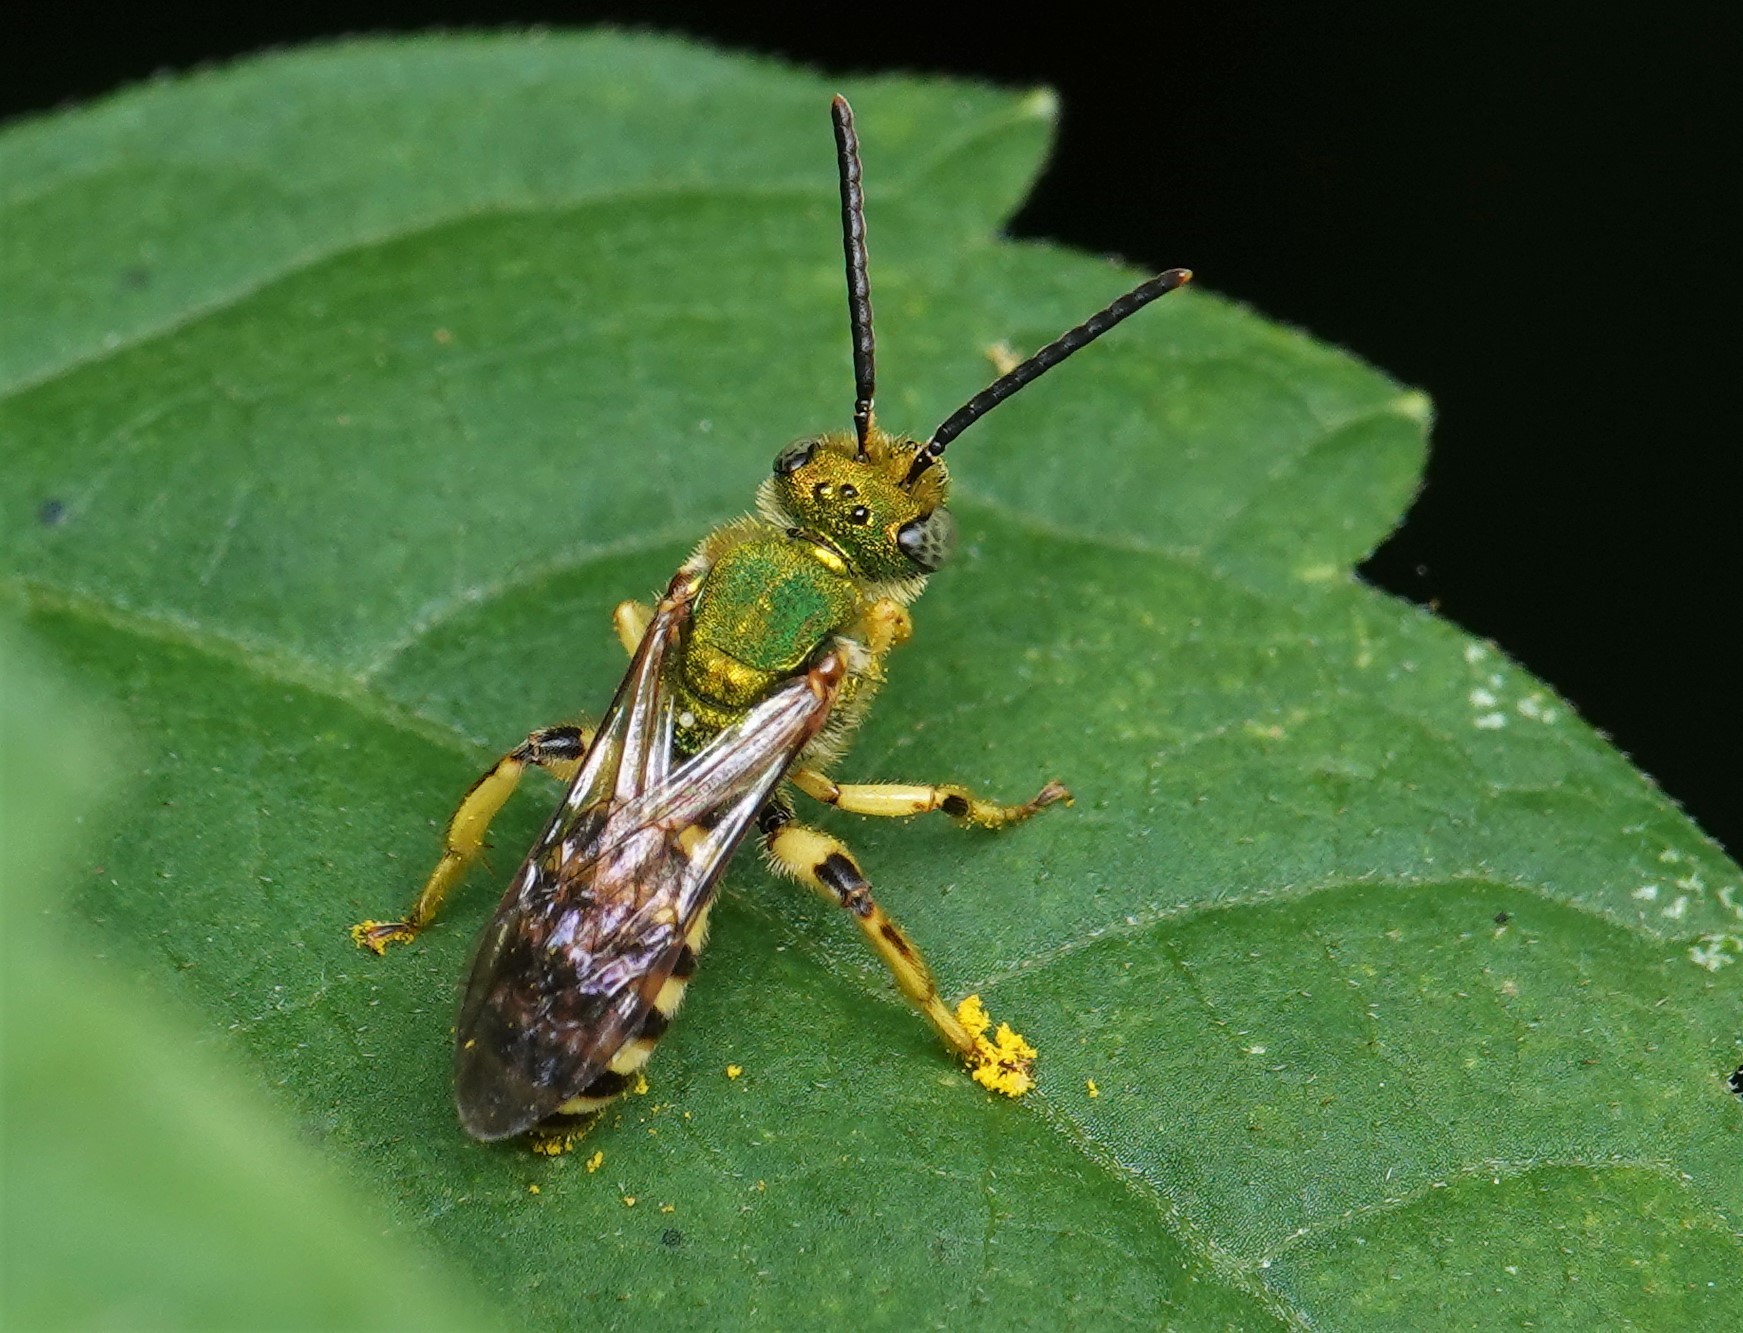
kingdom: Animalia
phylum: Arthropoda
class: Insecta
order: Hymenoptera
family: Halictidae
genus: Agapostemon
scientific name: Agapostemon virescens
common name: Bicolored striped sweat bee
